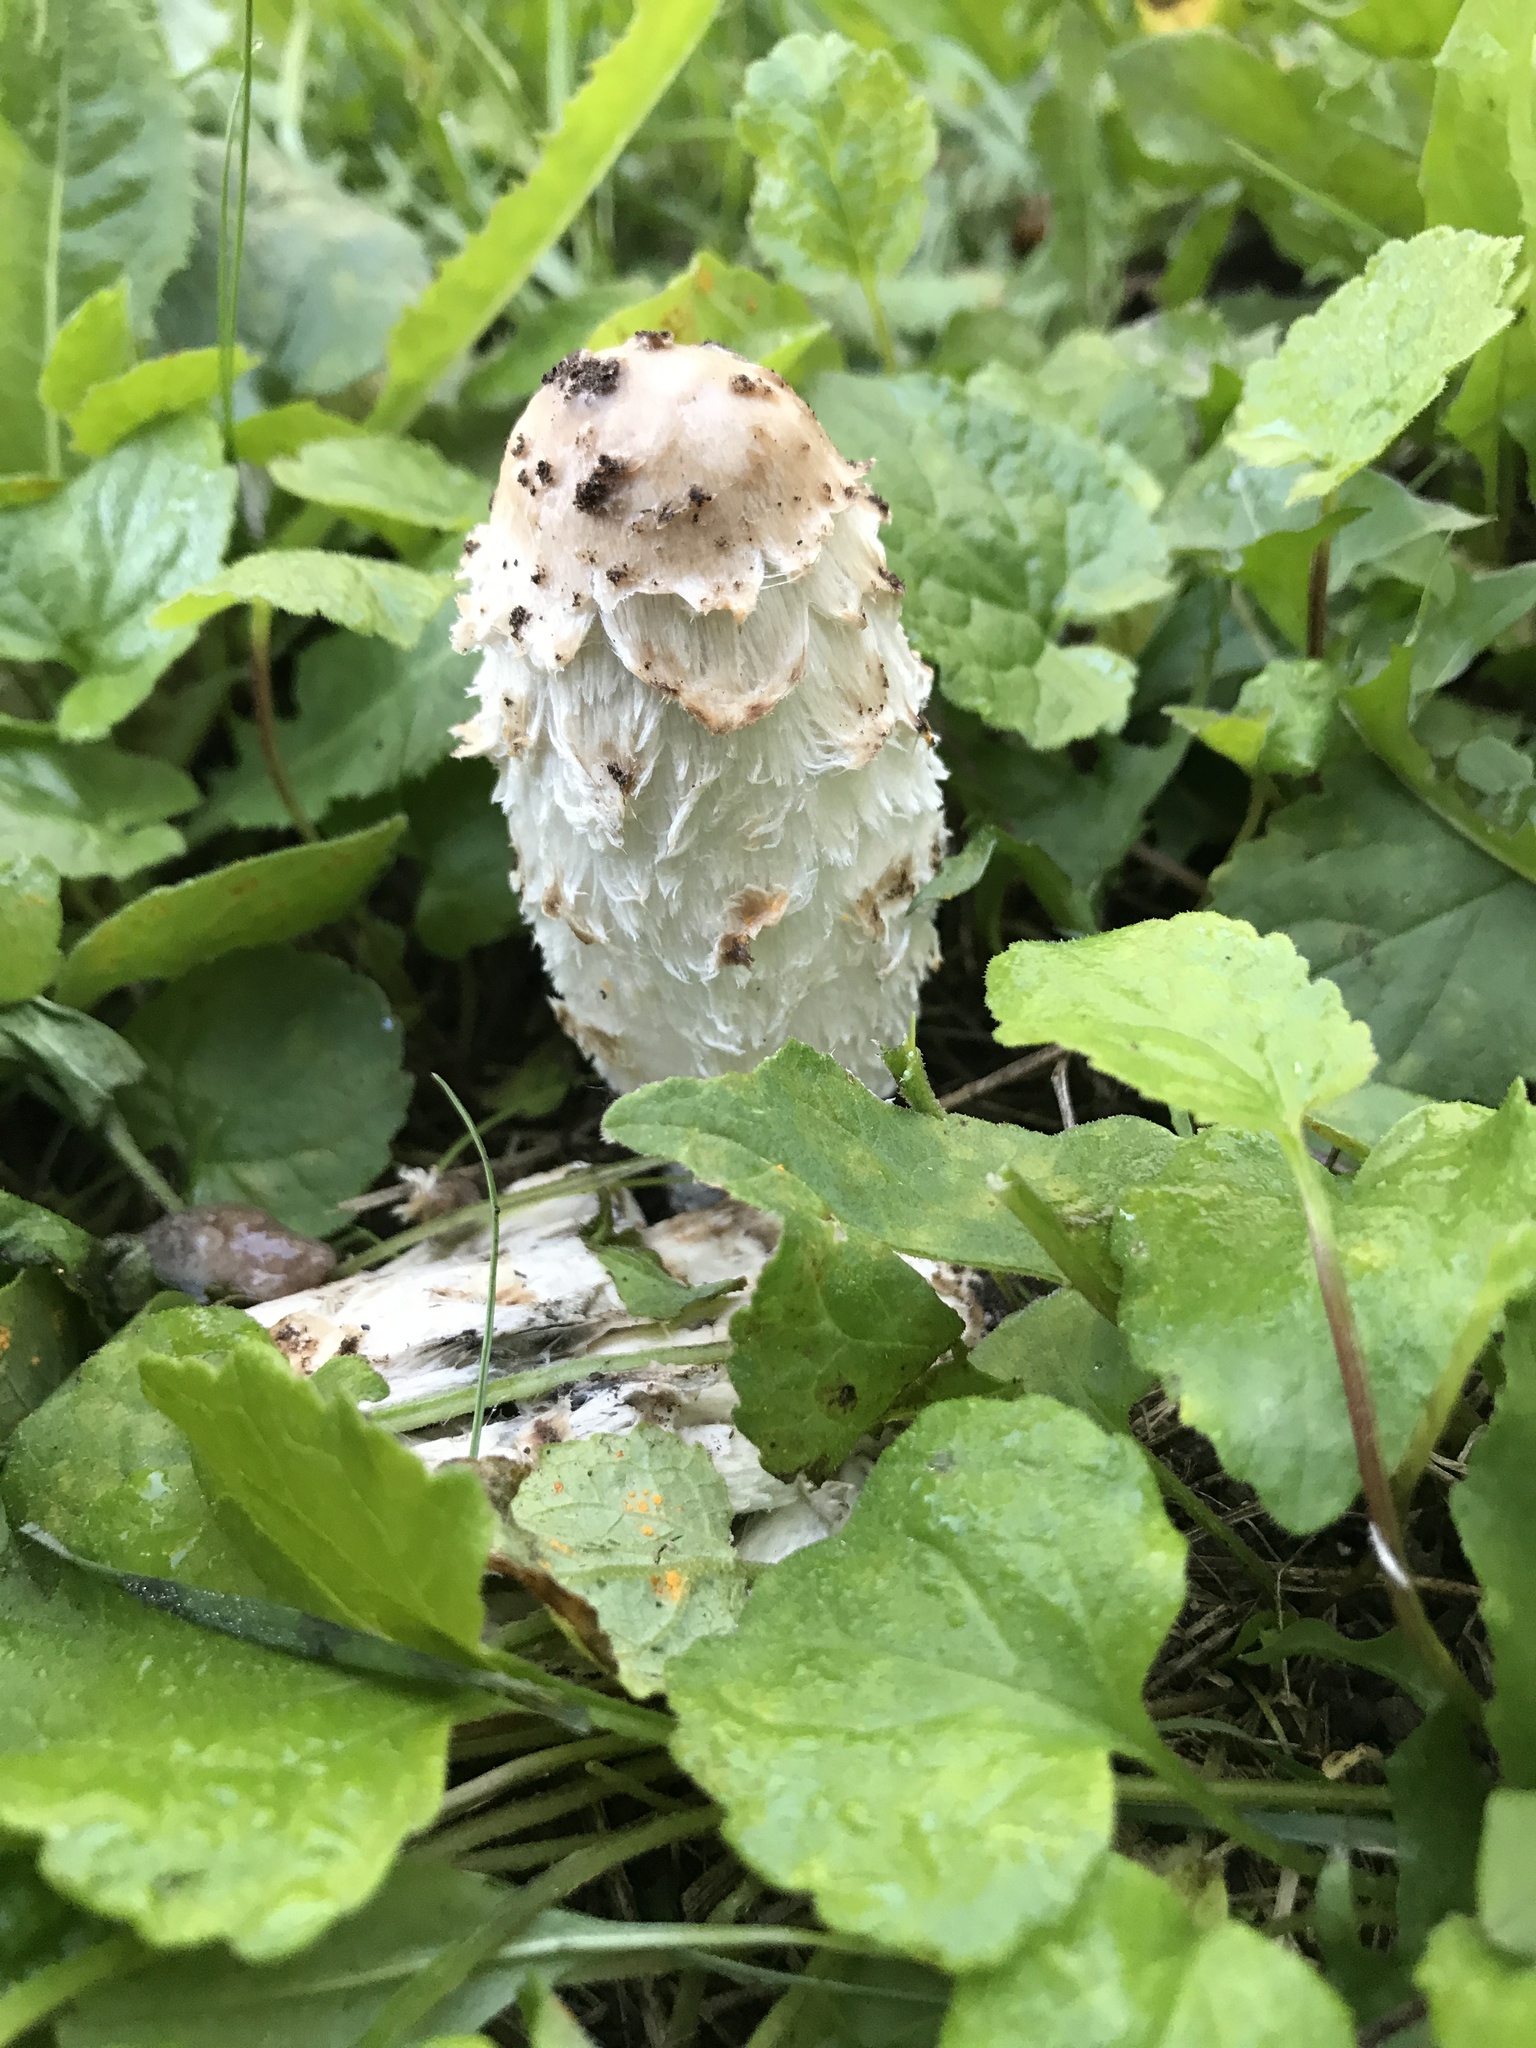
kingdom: Fungi
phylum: Basidiomycota
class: Agaricomycetes
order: Agaricales
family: Agaricaceae
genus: Coprinus
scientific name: Coprinus comatus
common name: Lawyer's wig
